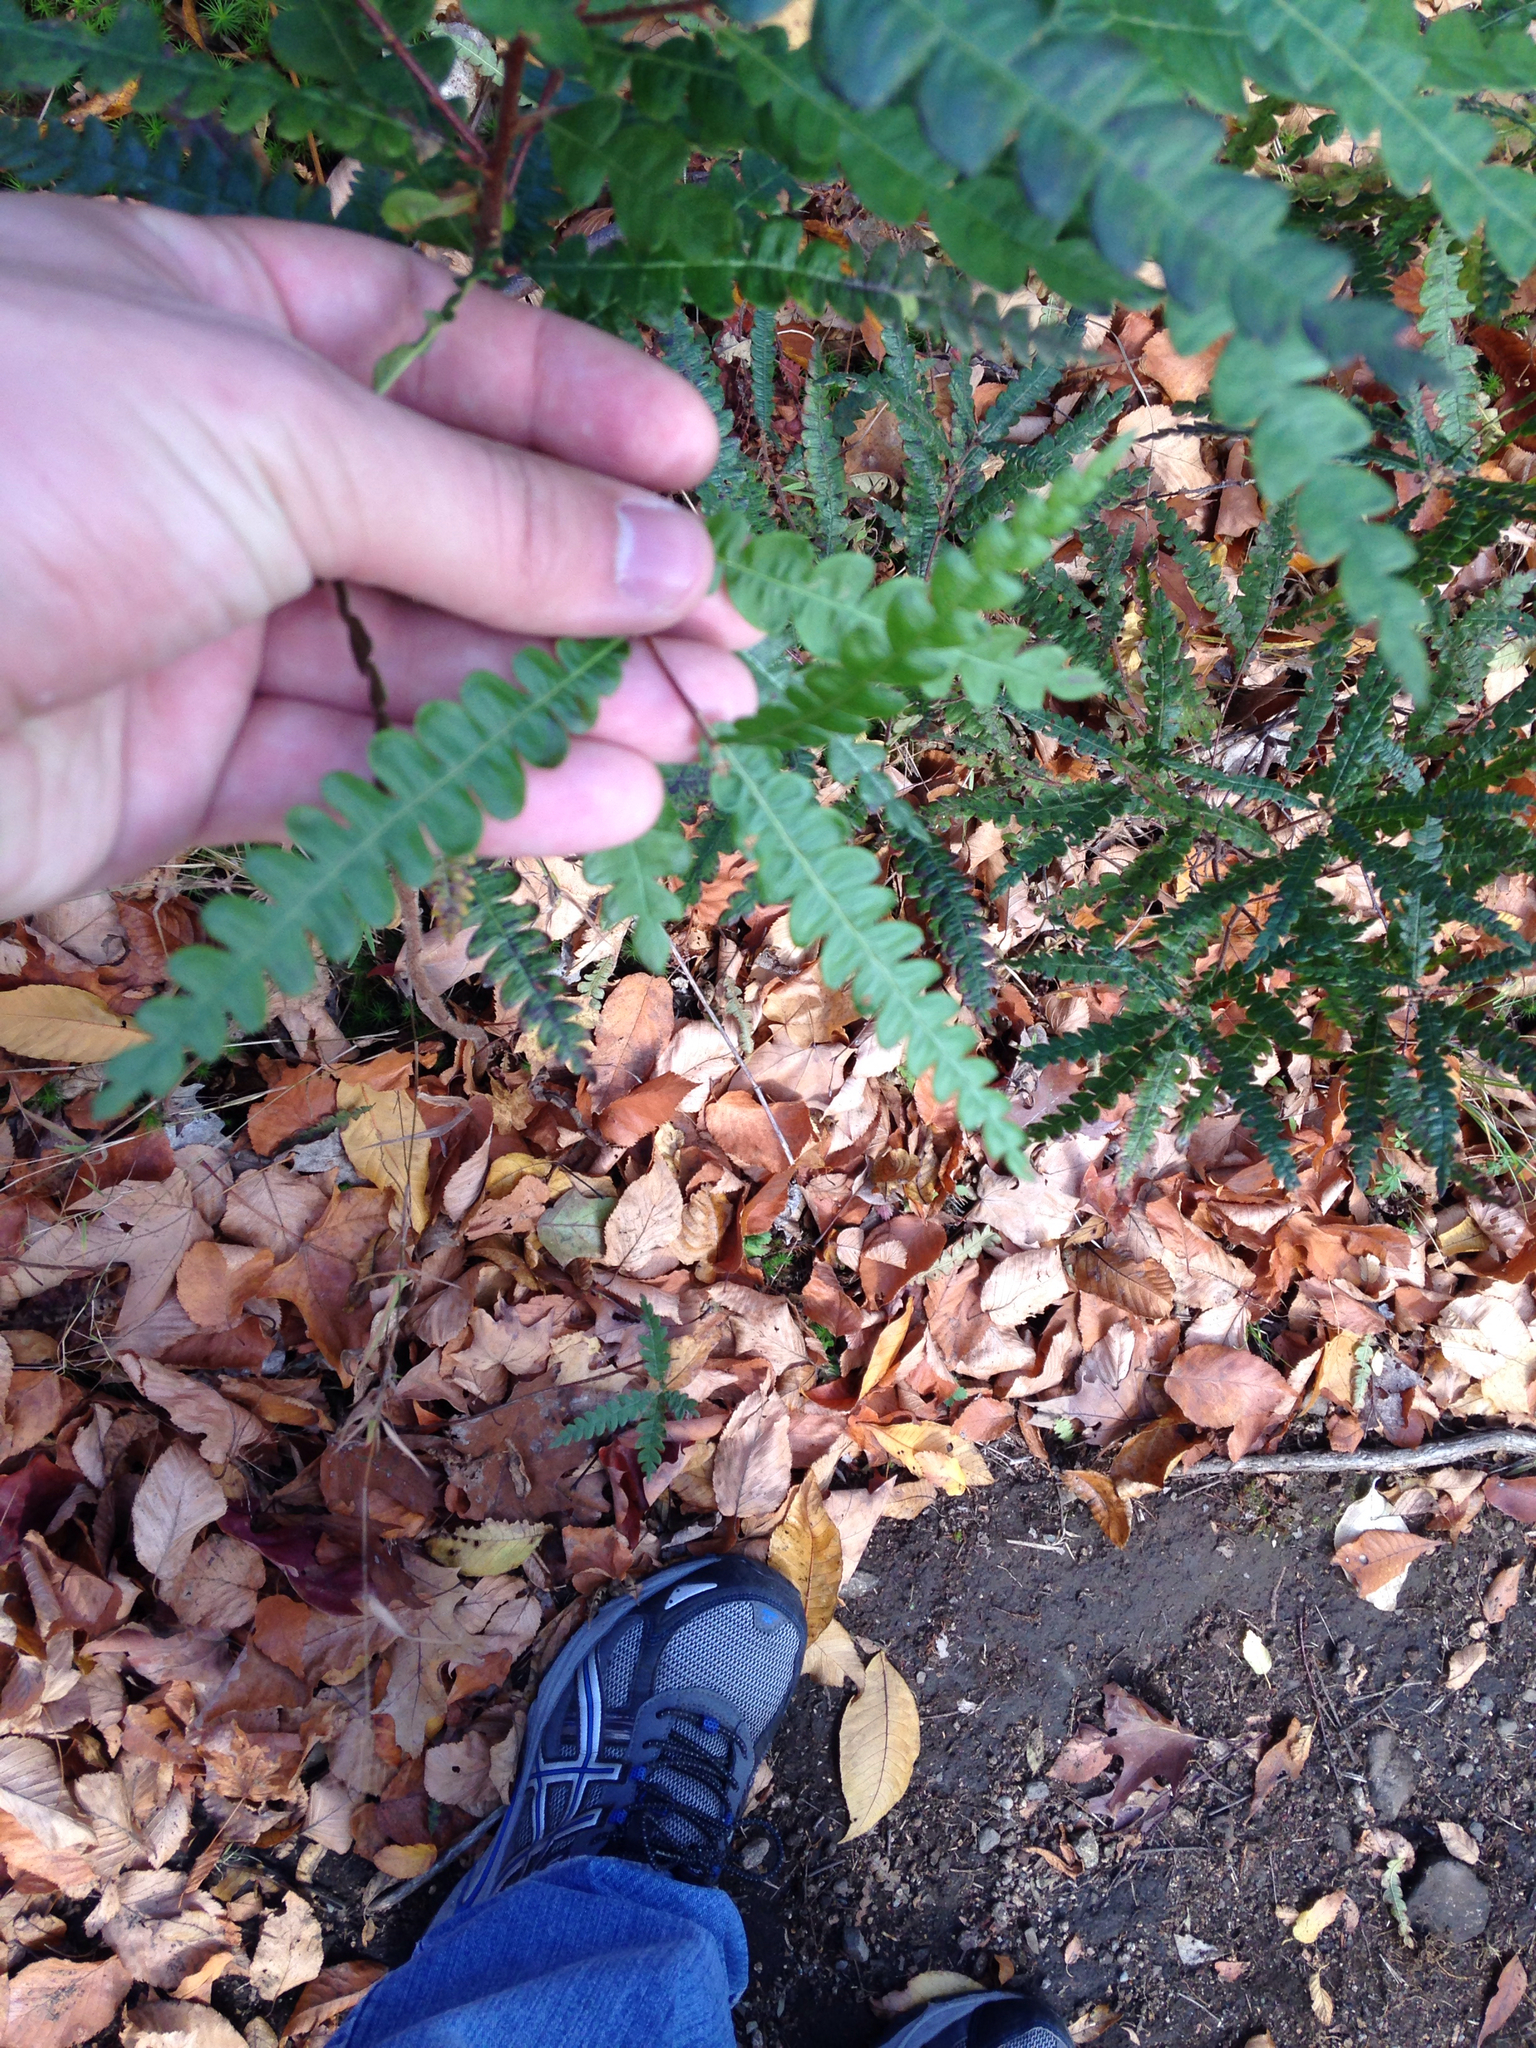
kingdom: Plantae
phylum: Tracheophyta
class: Magnoliopsida
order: Fagales
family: Myricaceae
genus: Comptonia
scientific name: Comptonia peregrina
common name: Sweet-fern
